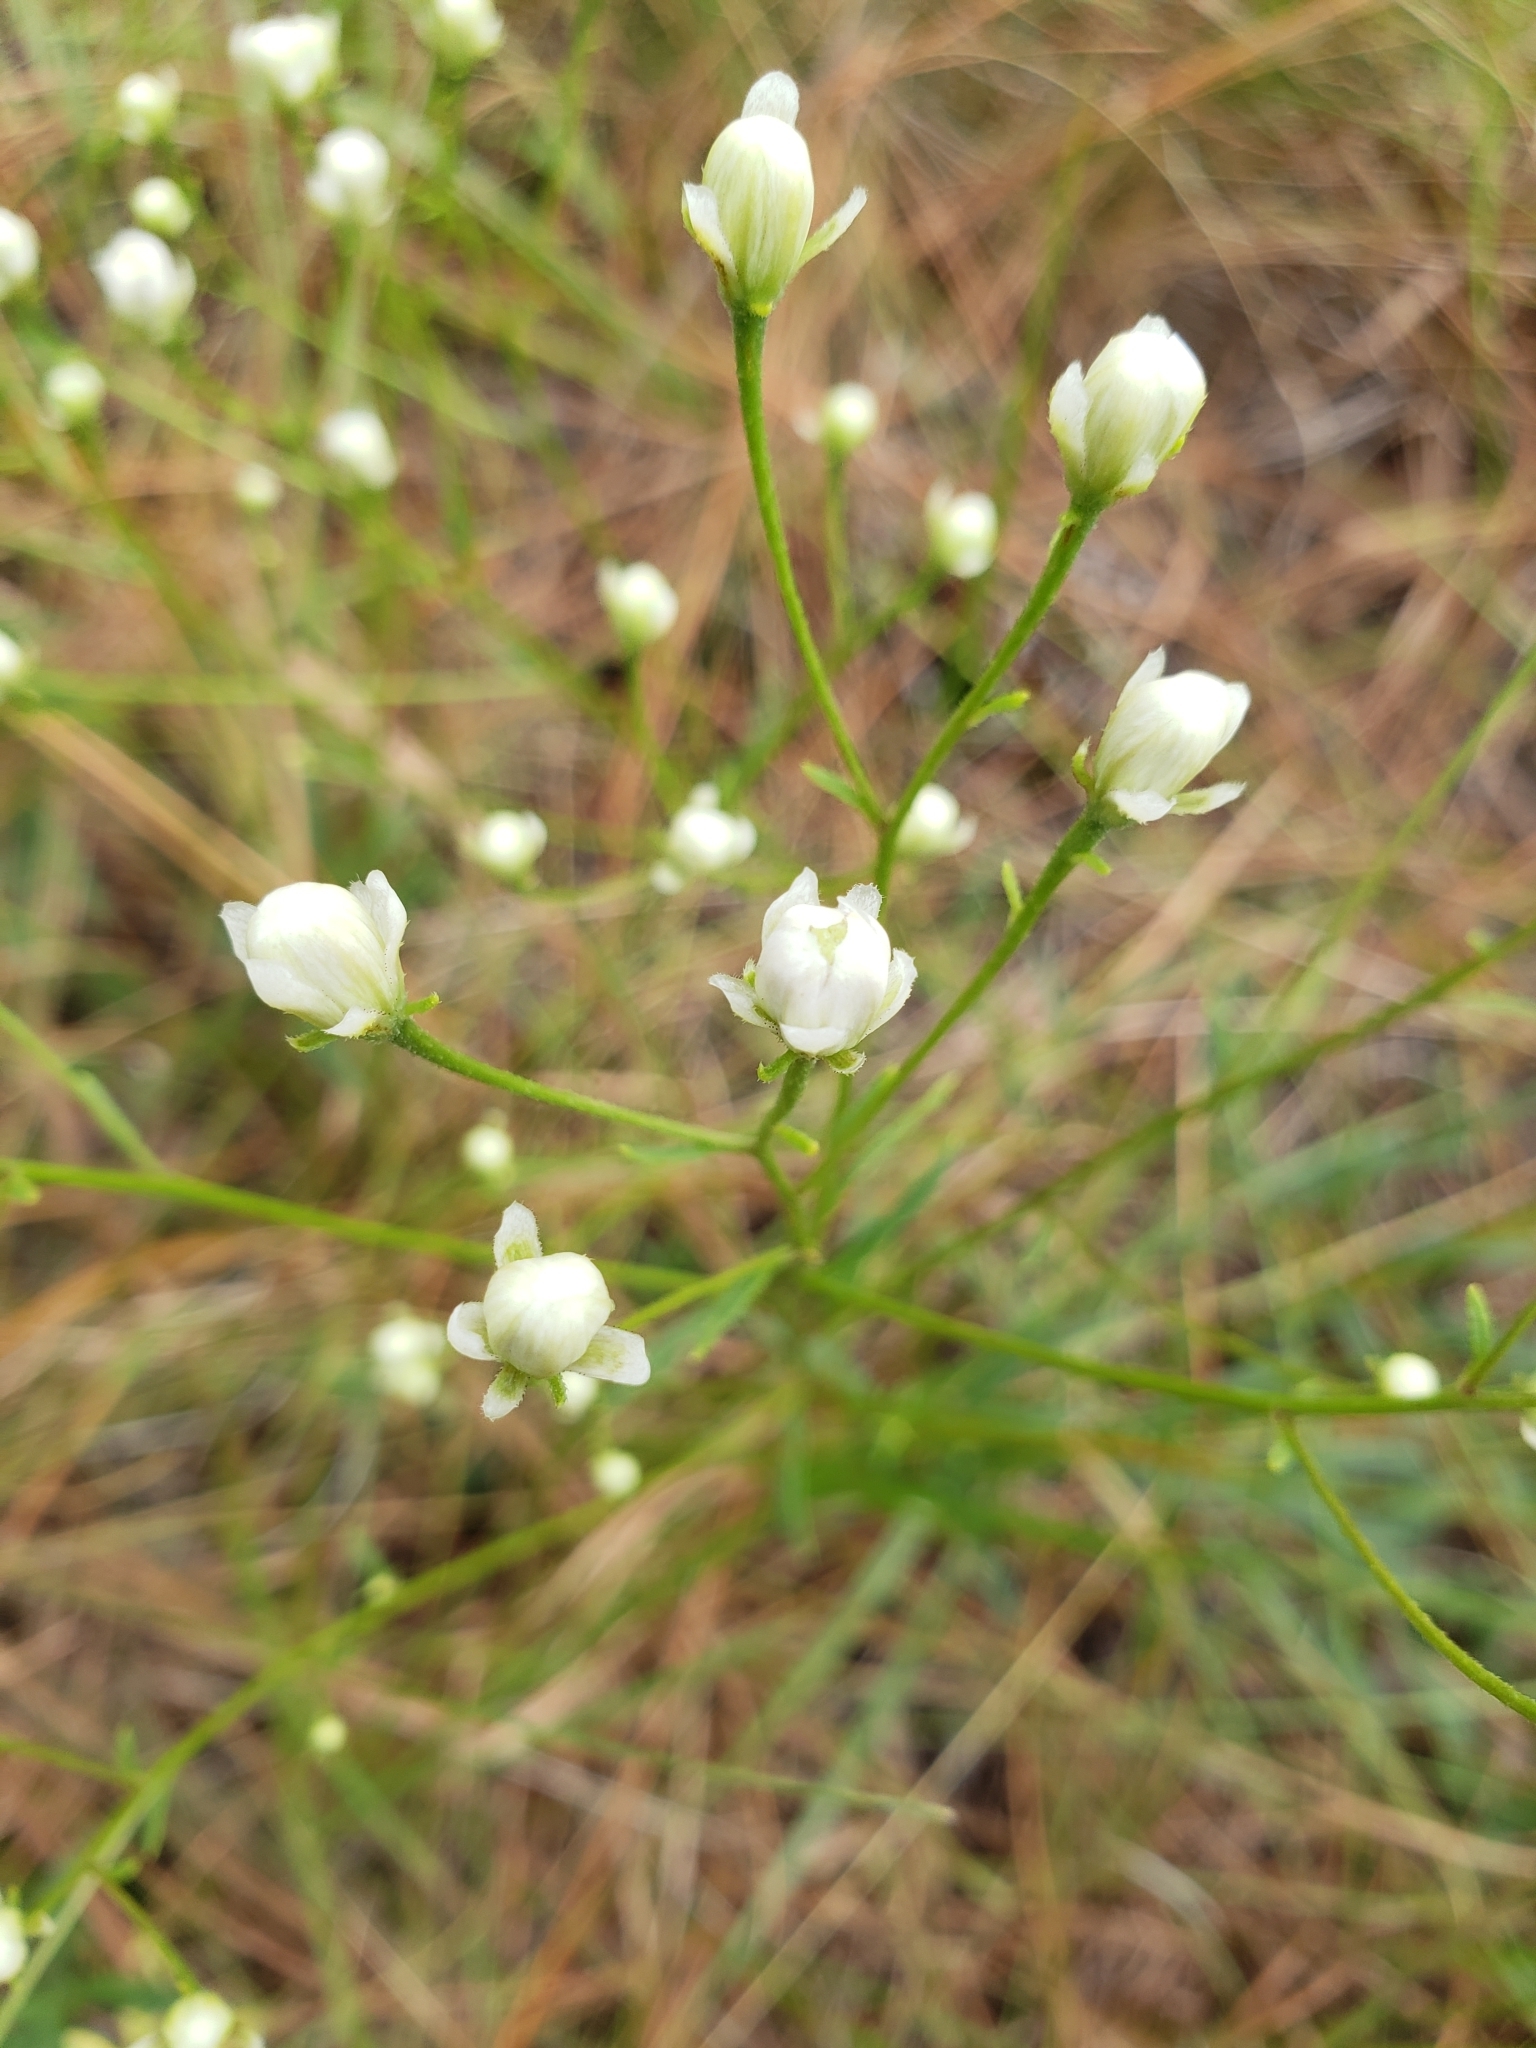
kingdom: Plantae
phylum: Tracheophyta
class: Magnoliopsida
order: Asterales
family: Asteraceae
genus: Palafoxia
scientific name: Palafoxia integrifolia
